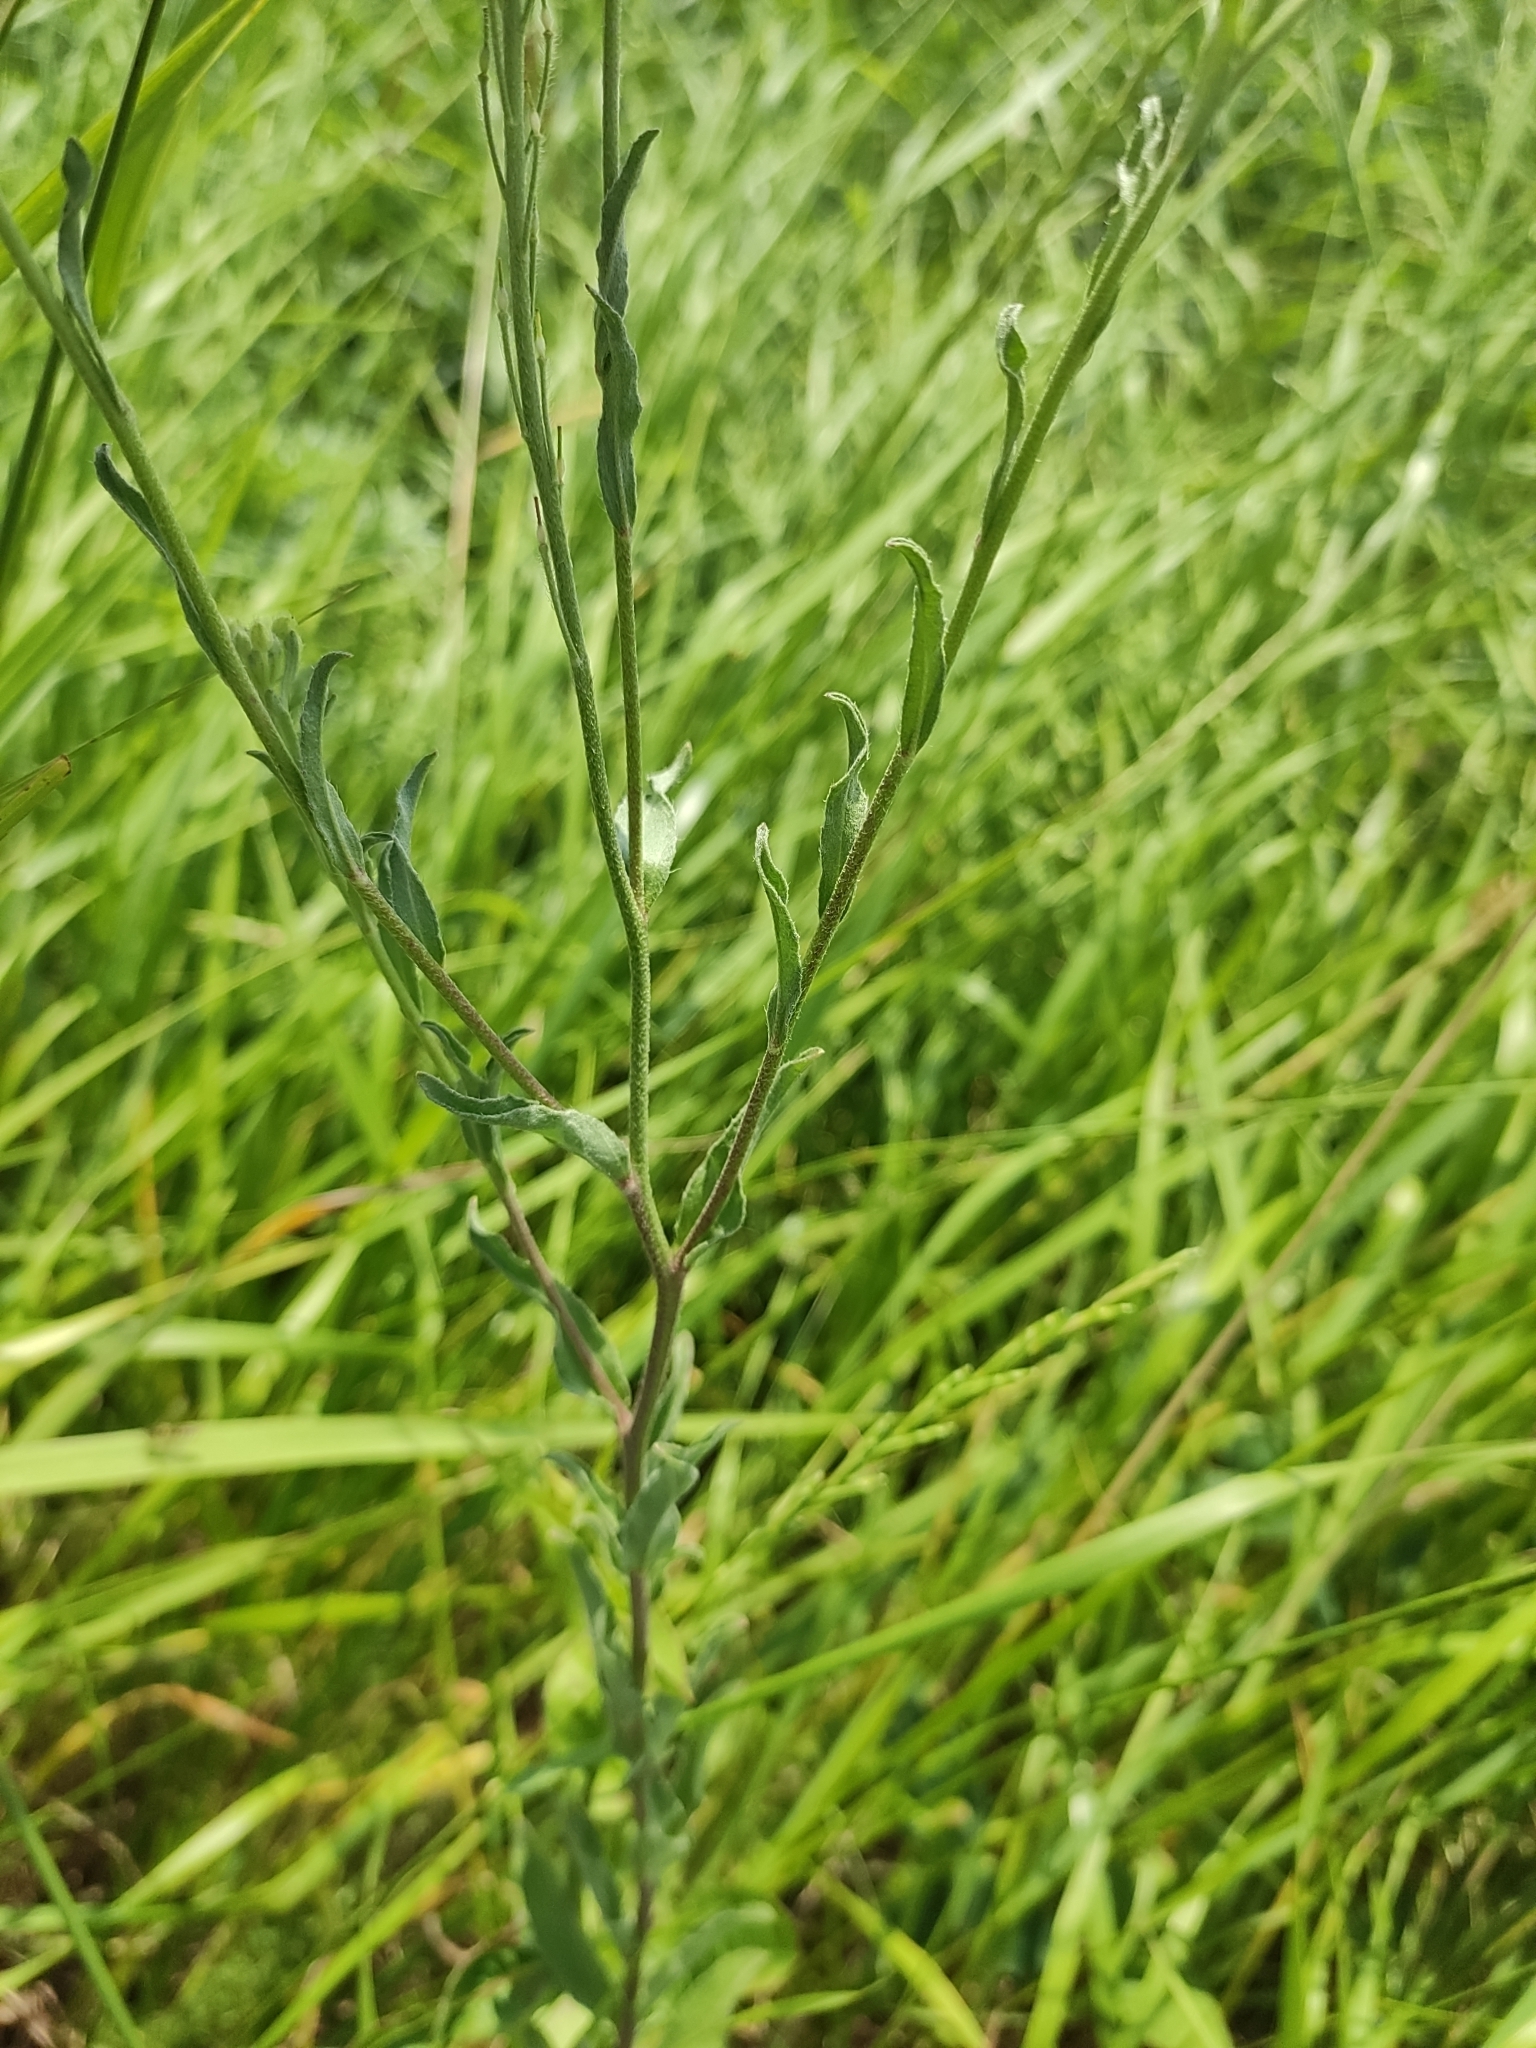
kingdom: Plantae
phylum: Tracheophyta
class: Magnoliopsida
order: Brassicales
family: Brassicaceae
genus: Berteroa
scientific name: Berteroa incana
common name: Hoary alison
